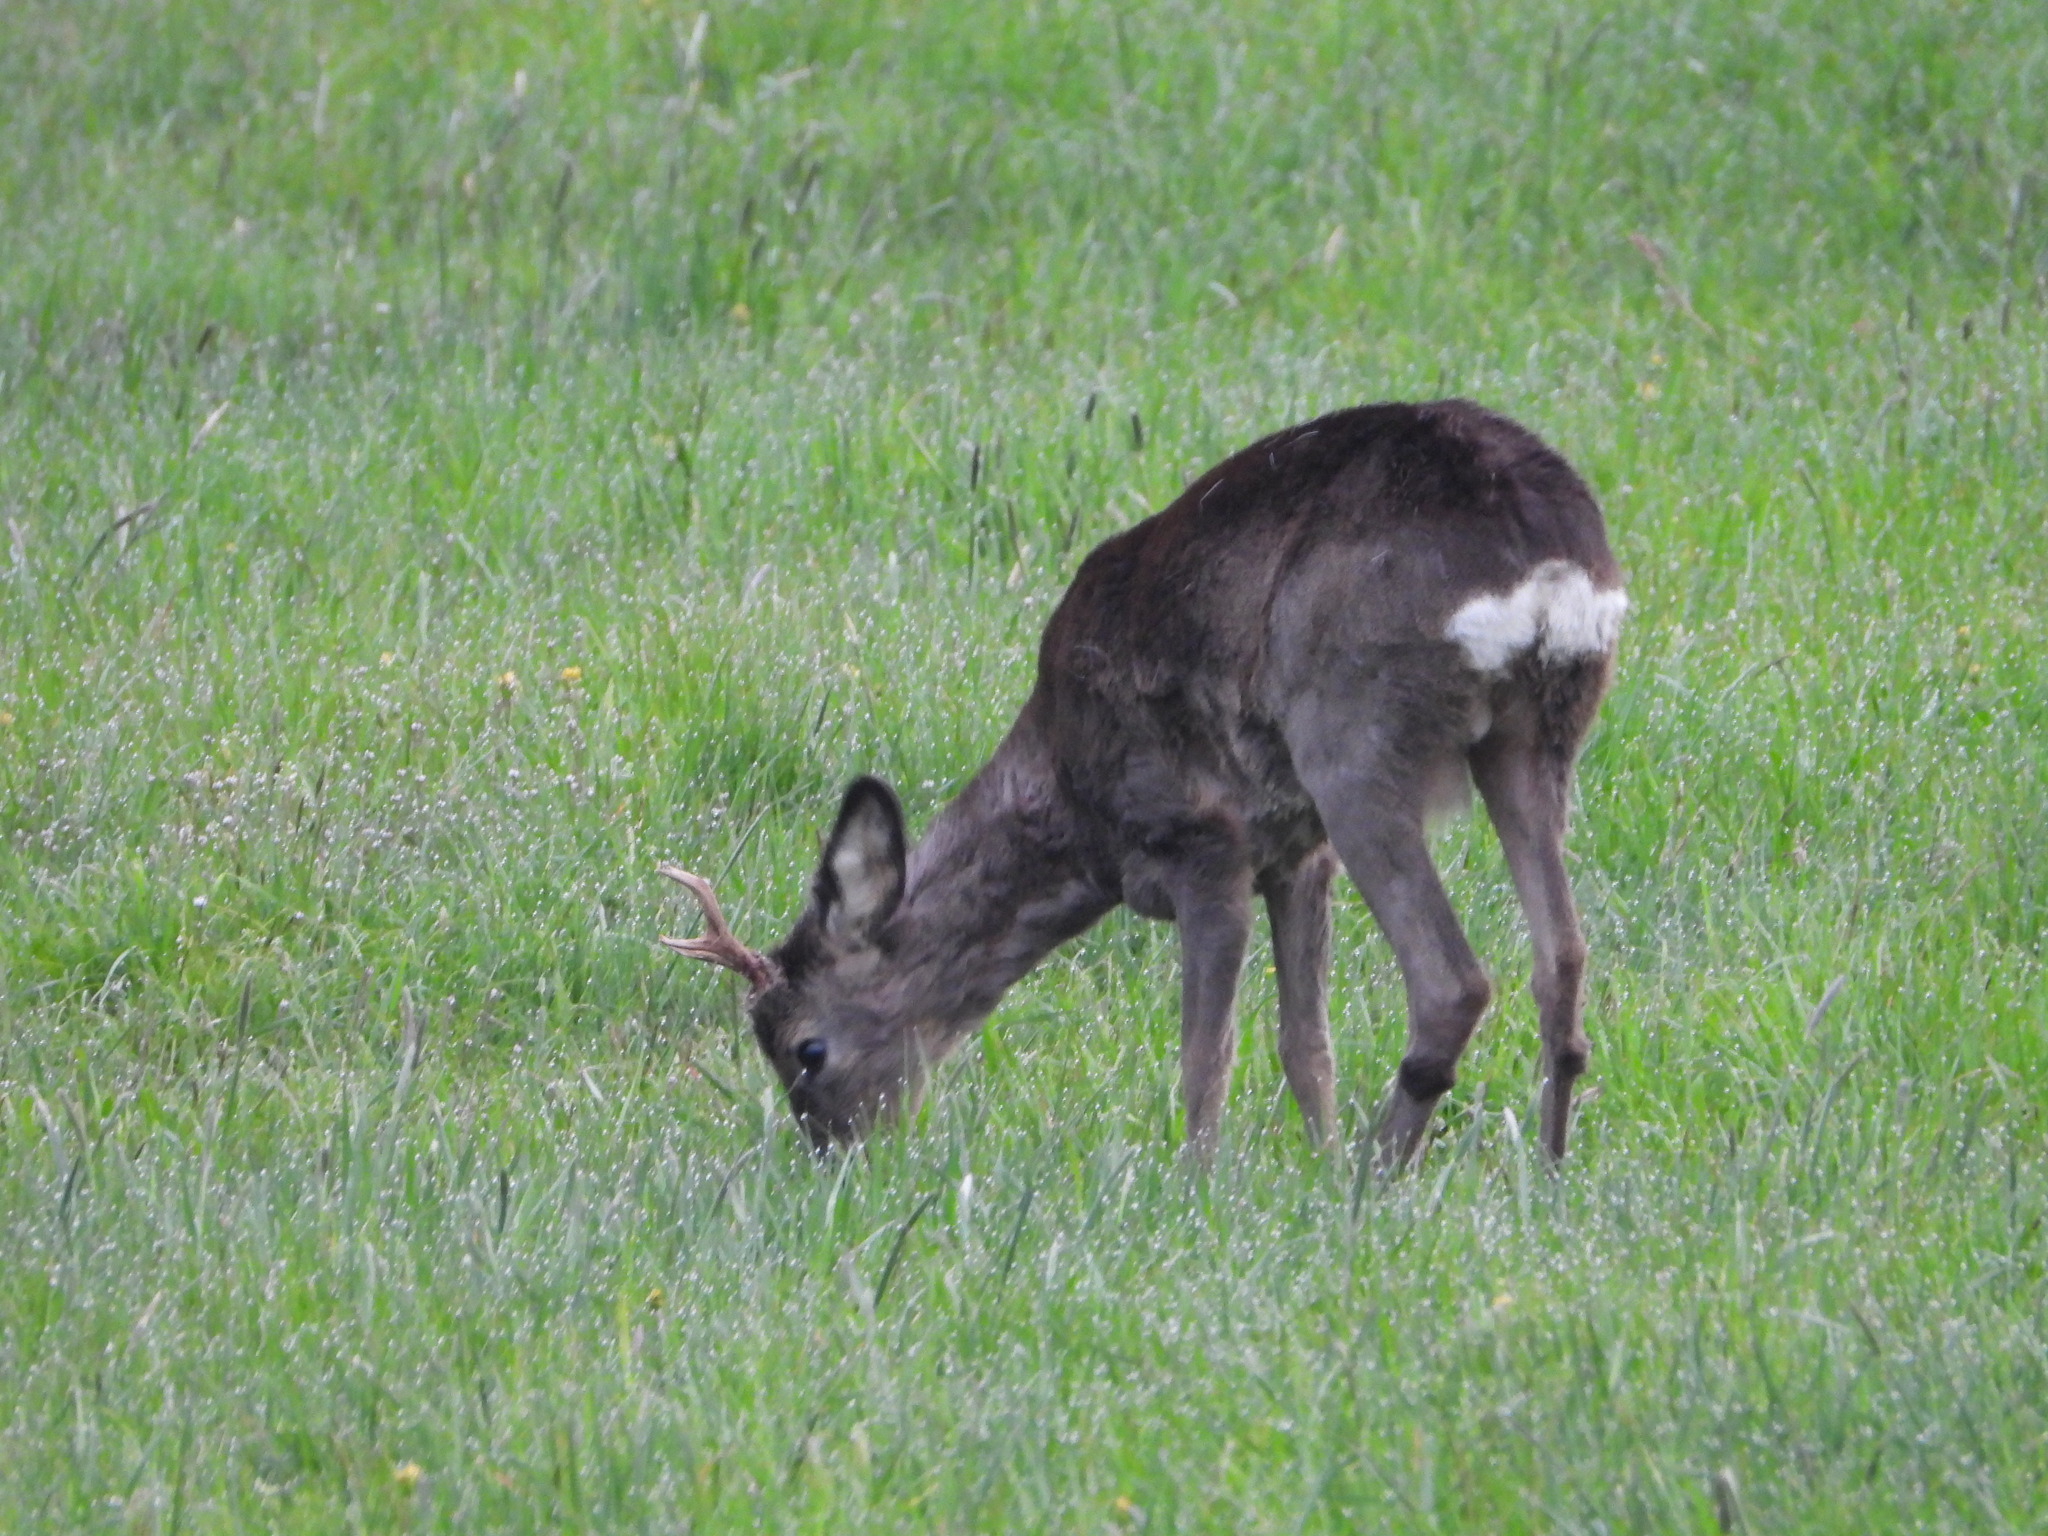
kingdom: Animalia
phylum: Chordata
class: Mammalia
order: Artiodactyla
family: Cervidae
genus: Capreolus
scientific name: Capreolus capreolus
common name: Western roe deer
